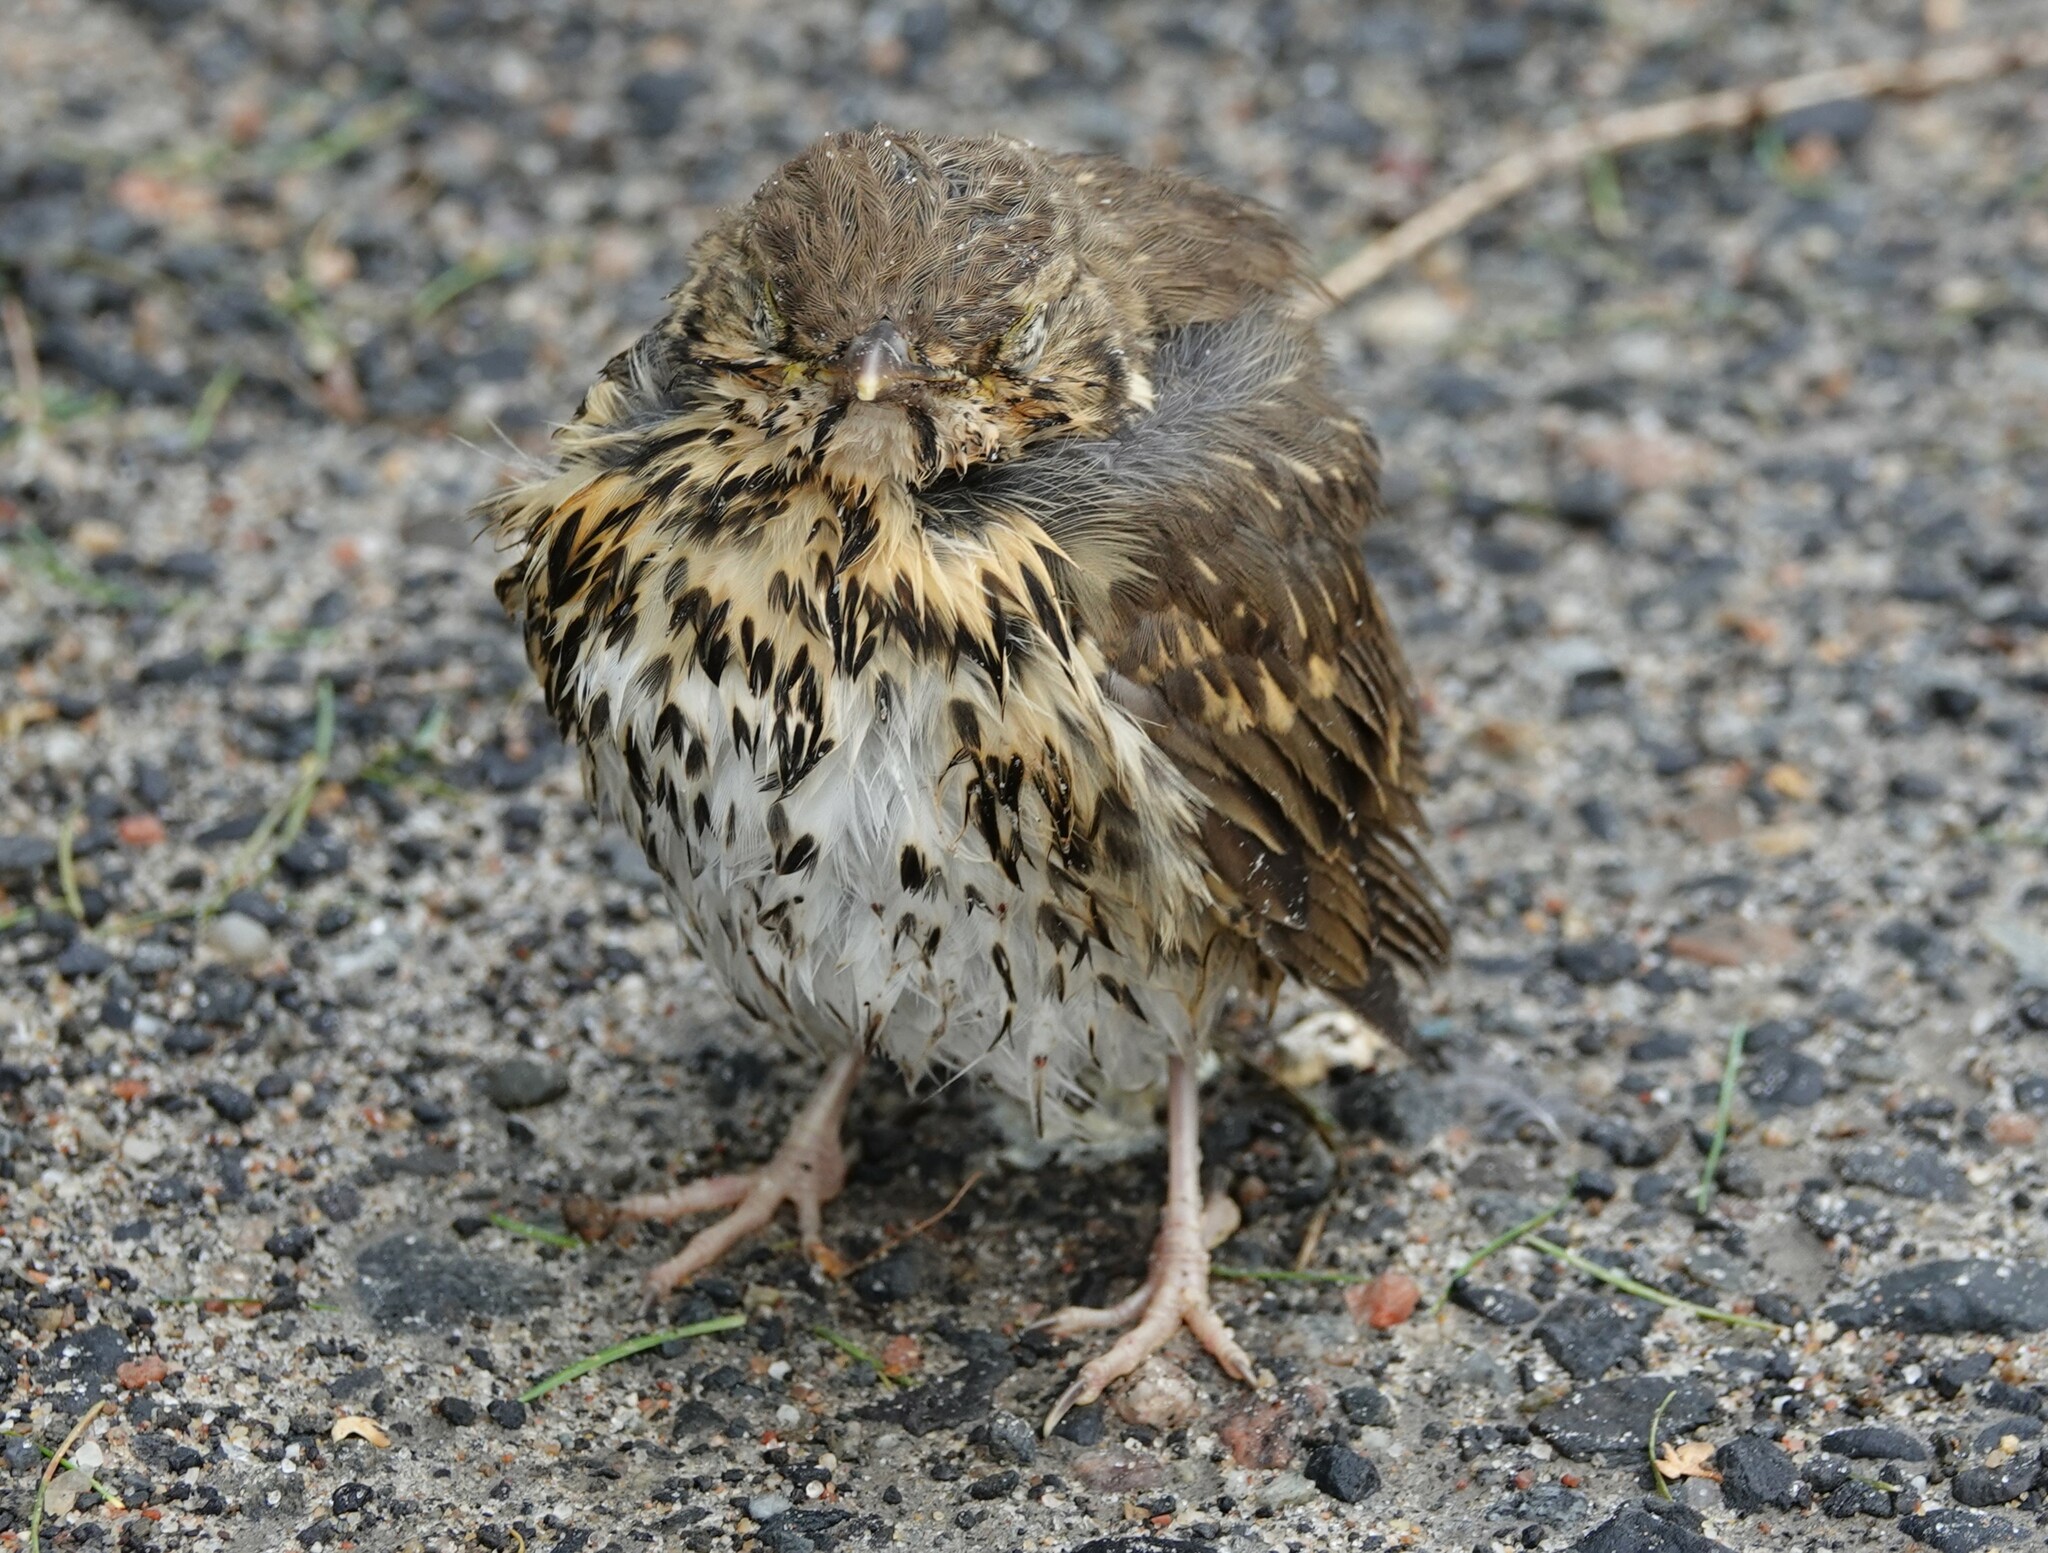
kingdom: Animalia
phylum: Chordata
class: Aves
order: Passeriformes
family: Turdidae
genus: Turdus
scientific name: Turdus philomelos
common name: Song thrush
